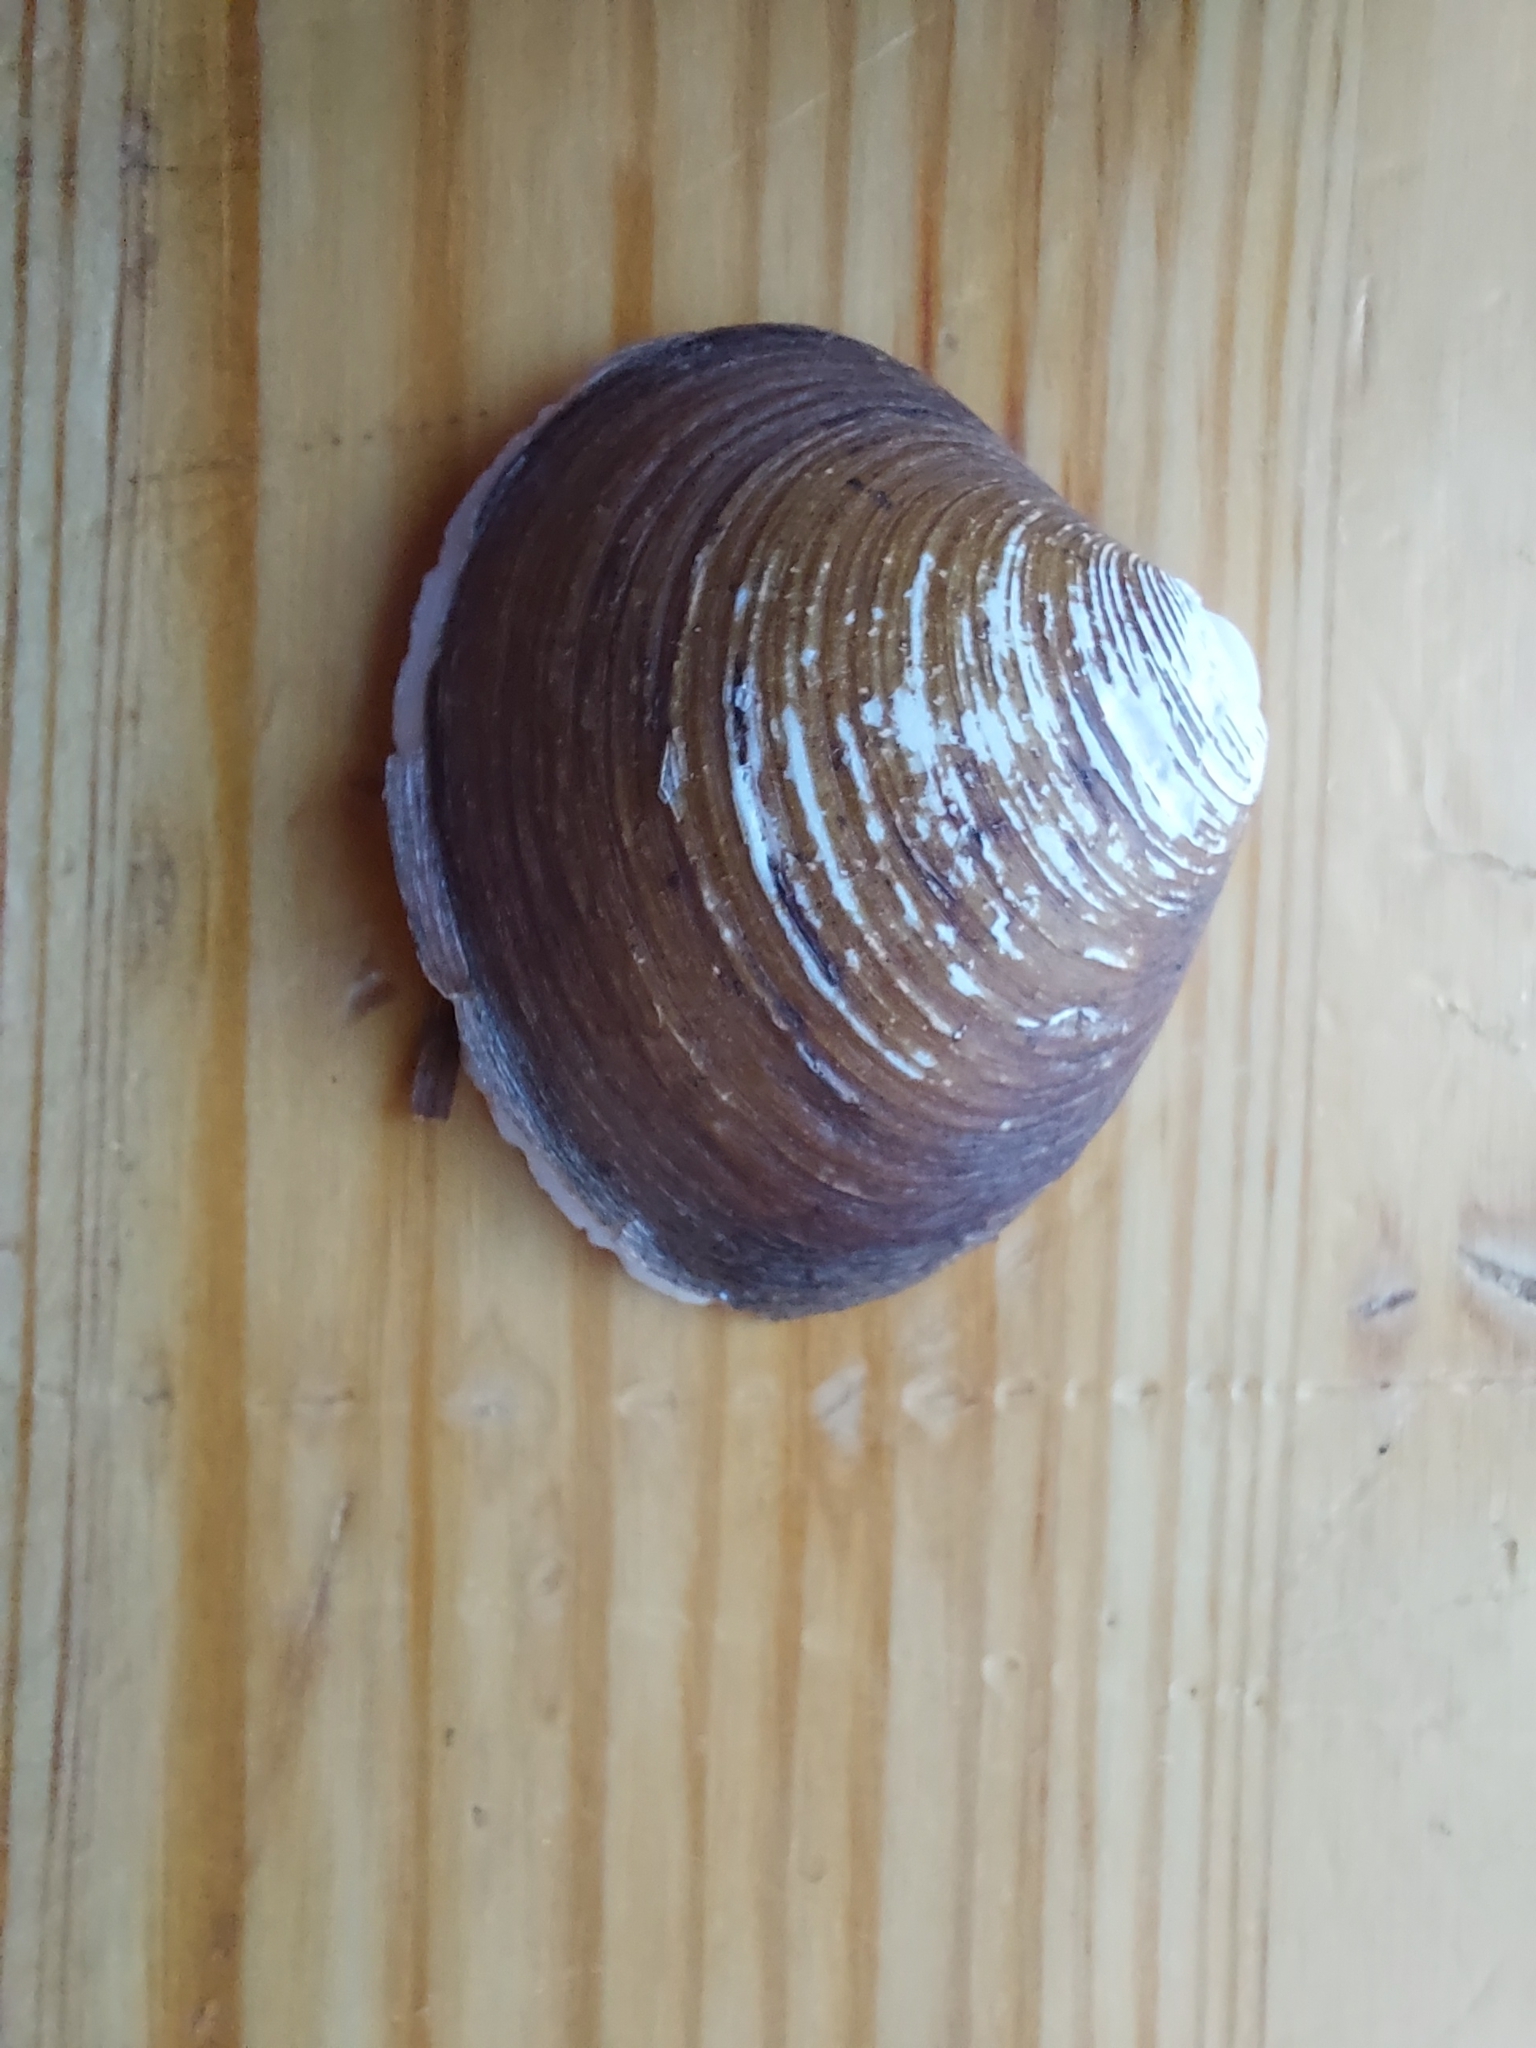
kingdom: Animalia
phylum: Mollusca
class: Bivalvia
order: Carditida
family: Astartidae
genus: Astarte
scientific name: Astarte borealis
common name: Boreal tridonta
